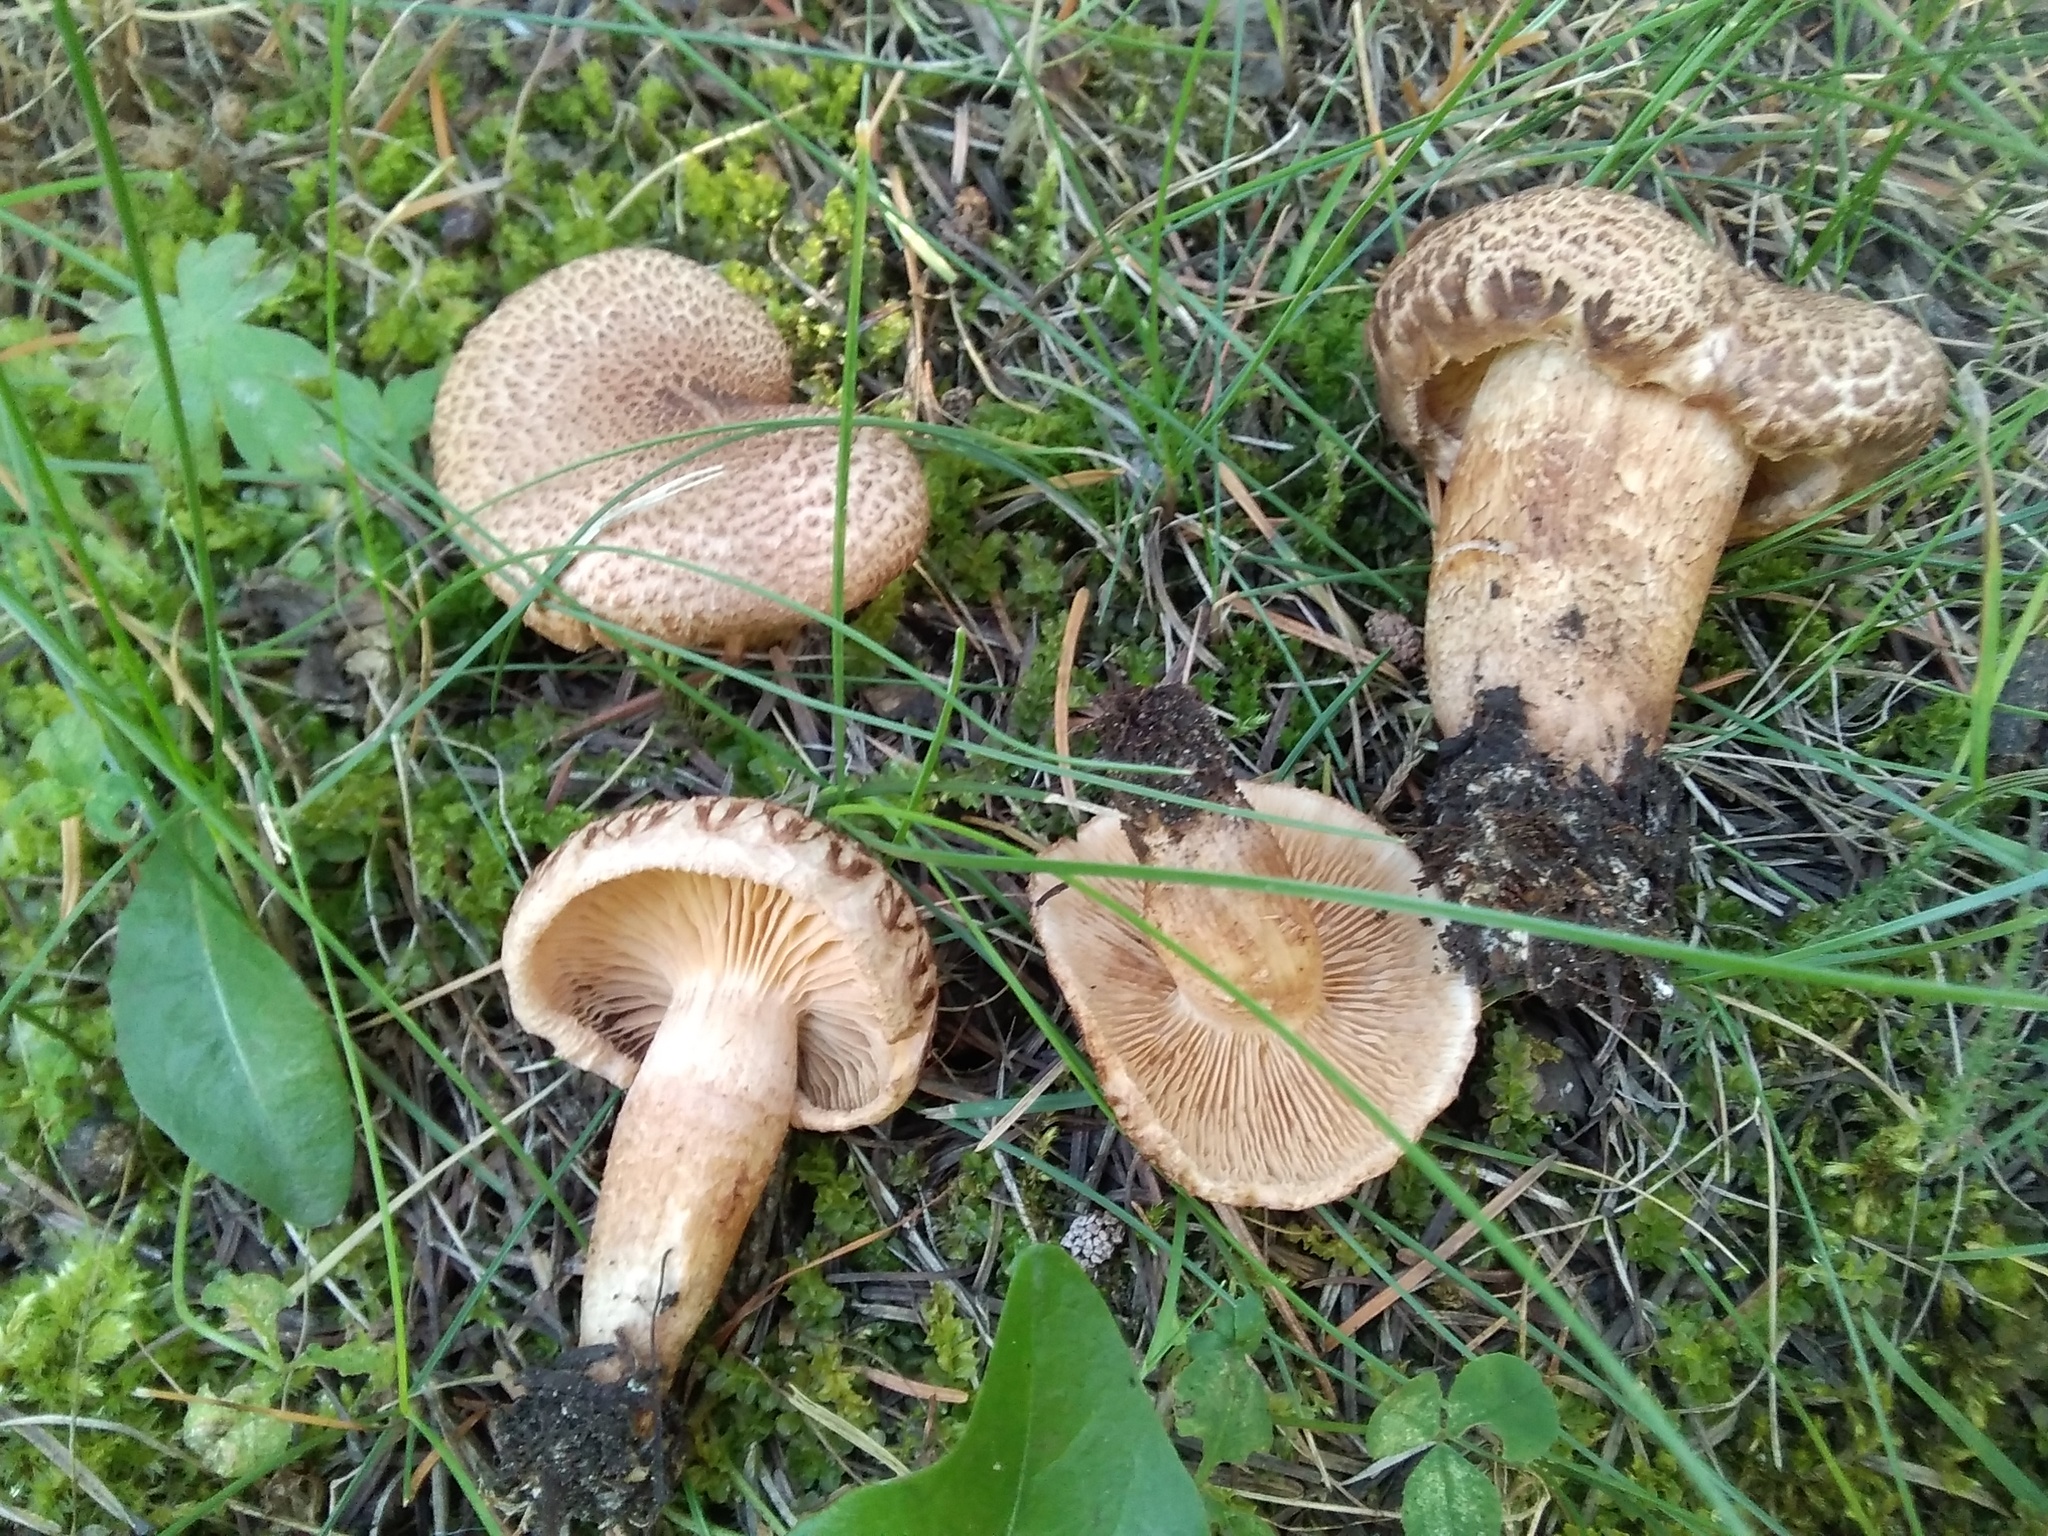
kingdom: Fungi
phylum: Basidiomycota
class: Agaricomycetes
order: Agaricales
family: Tricholomataceae
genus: Tricholoma
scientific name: Tricholoma vaccinum
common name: Scaly knight
